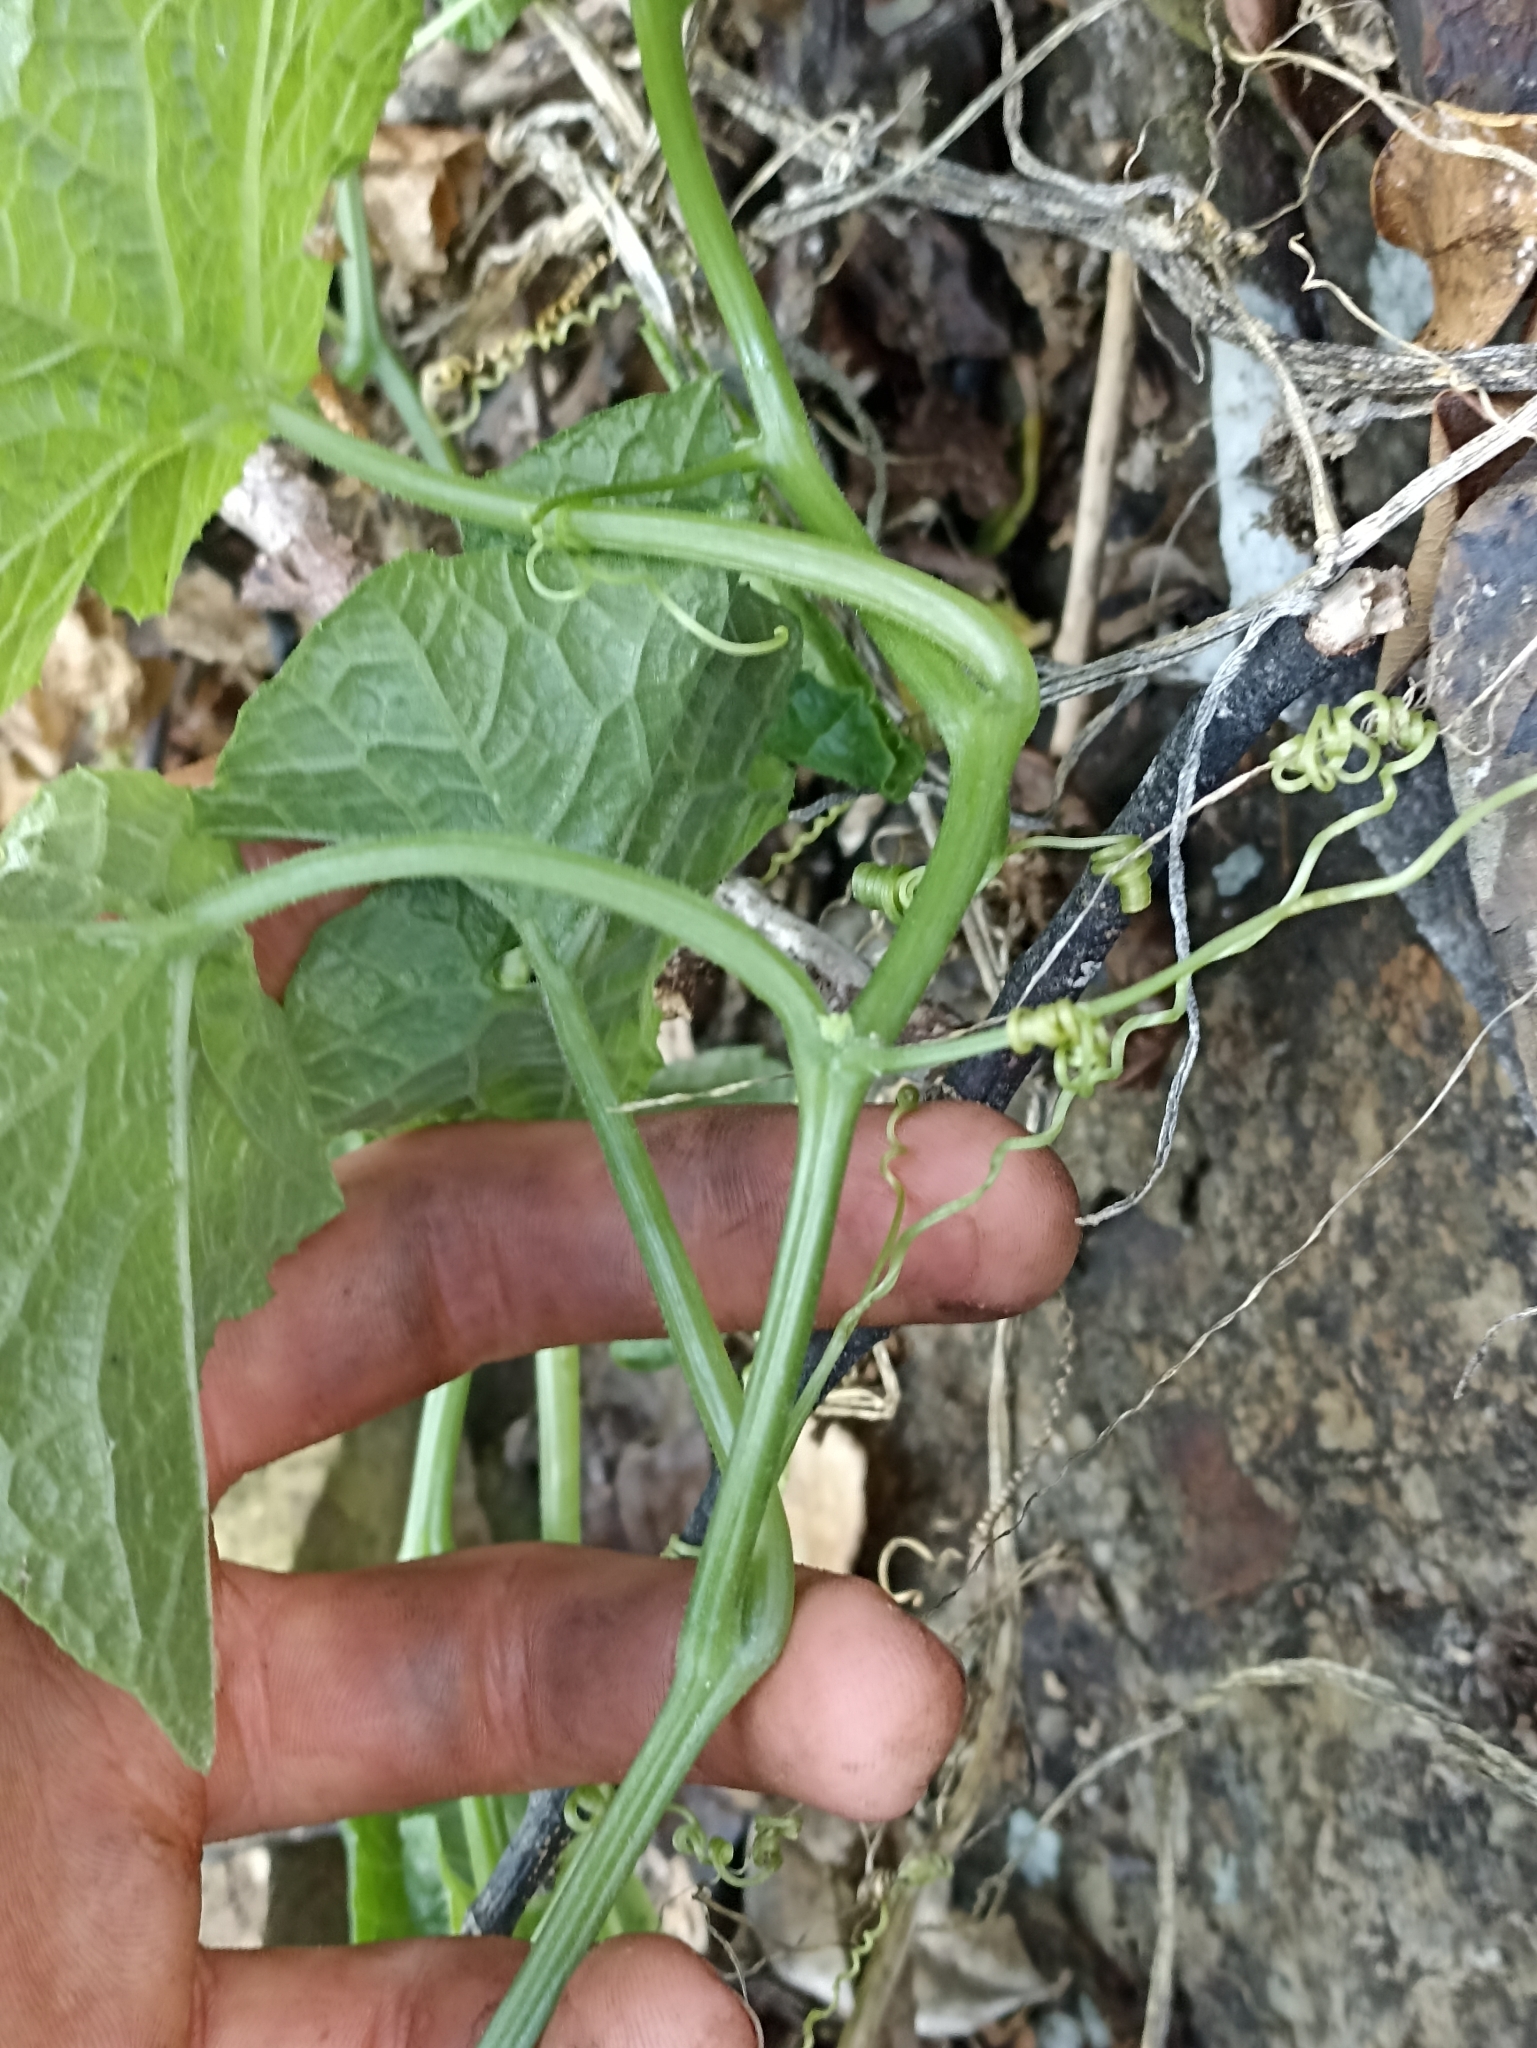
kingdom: Plantae
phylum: Tracheophyta
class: Magnoliopsida
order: Cucurbitales
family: Cucurbitaceae
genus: Sicyos
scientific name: Sicyos australis
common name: Angle-cucumber
